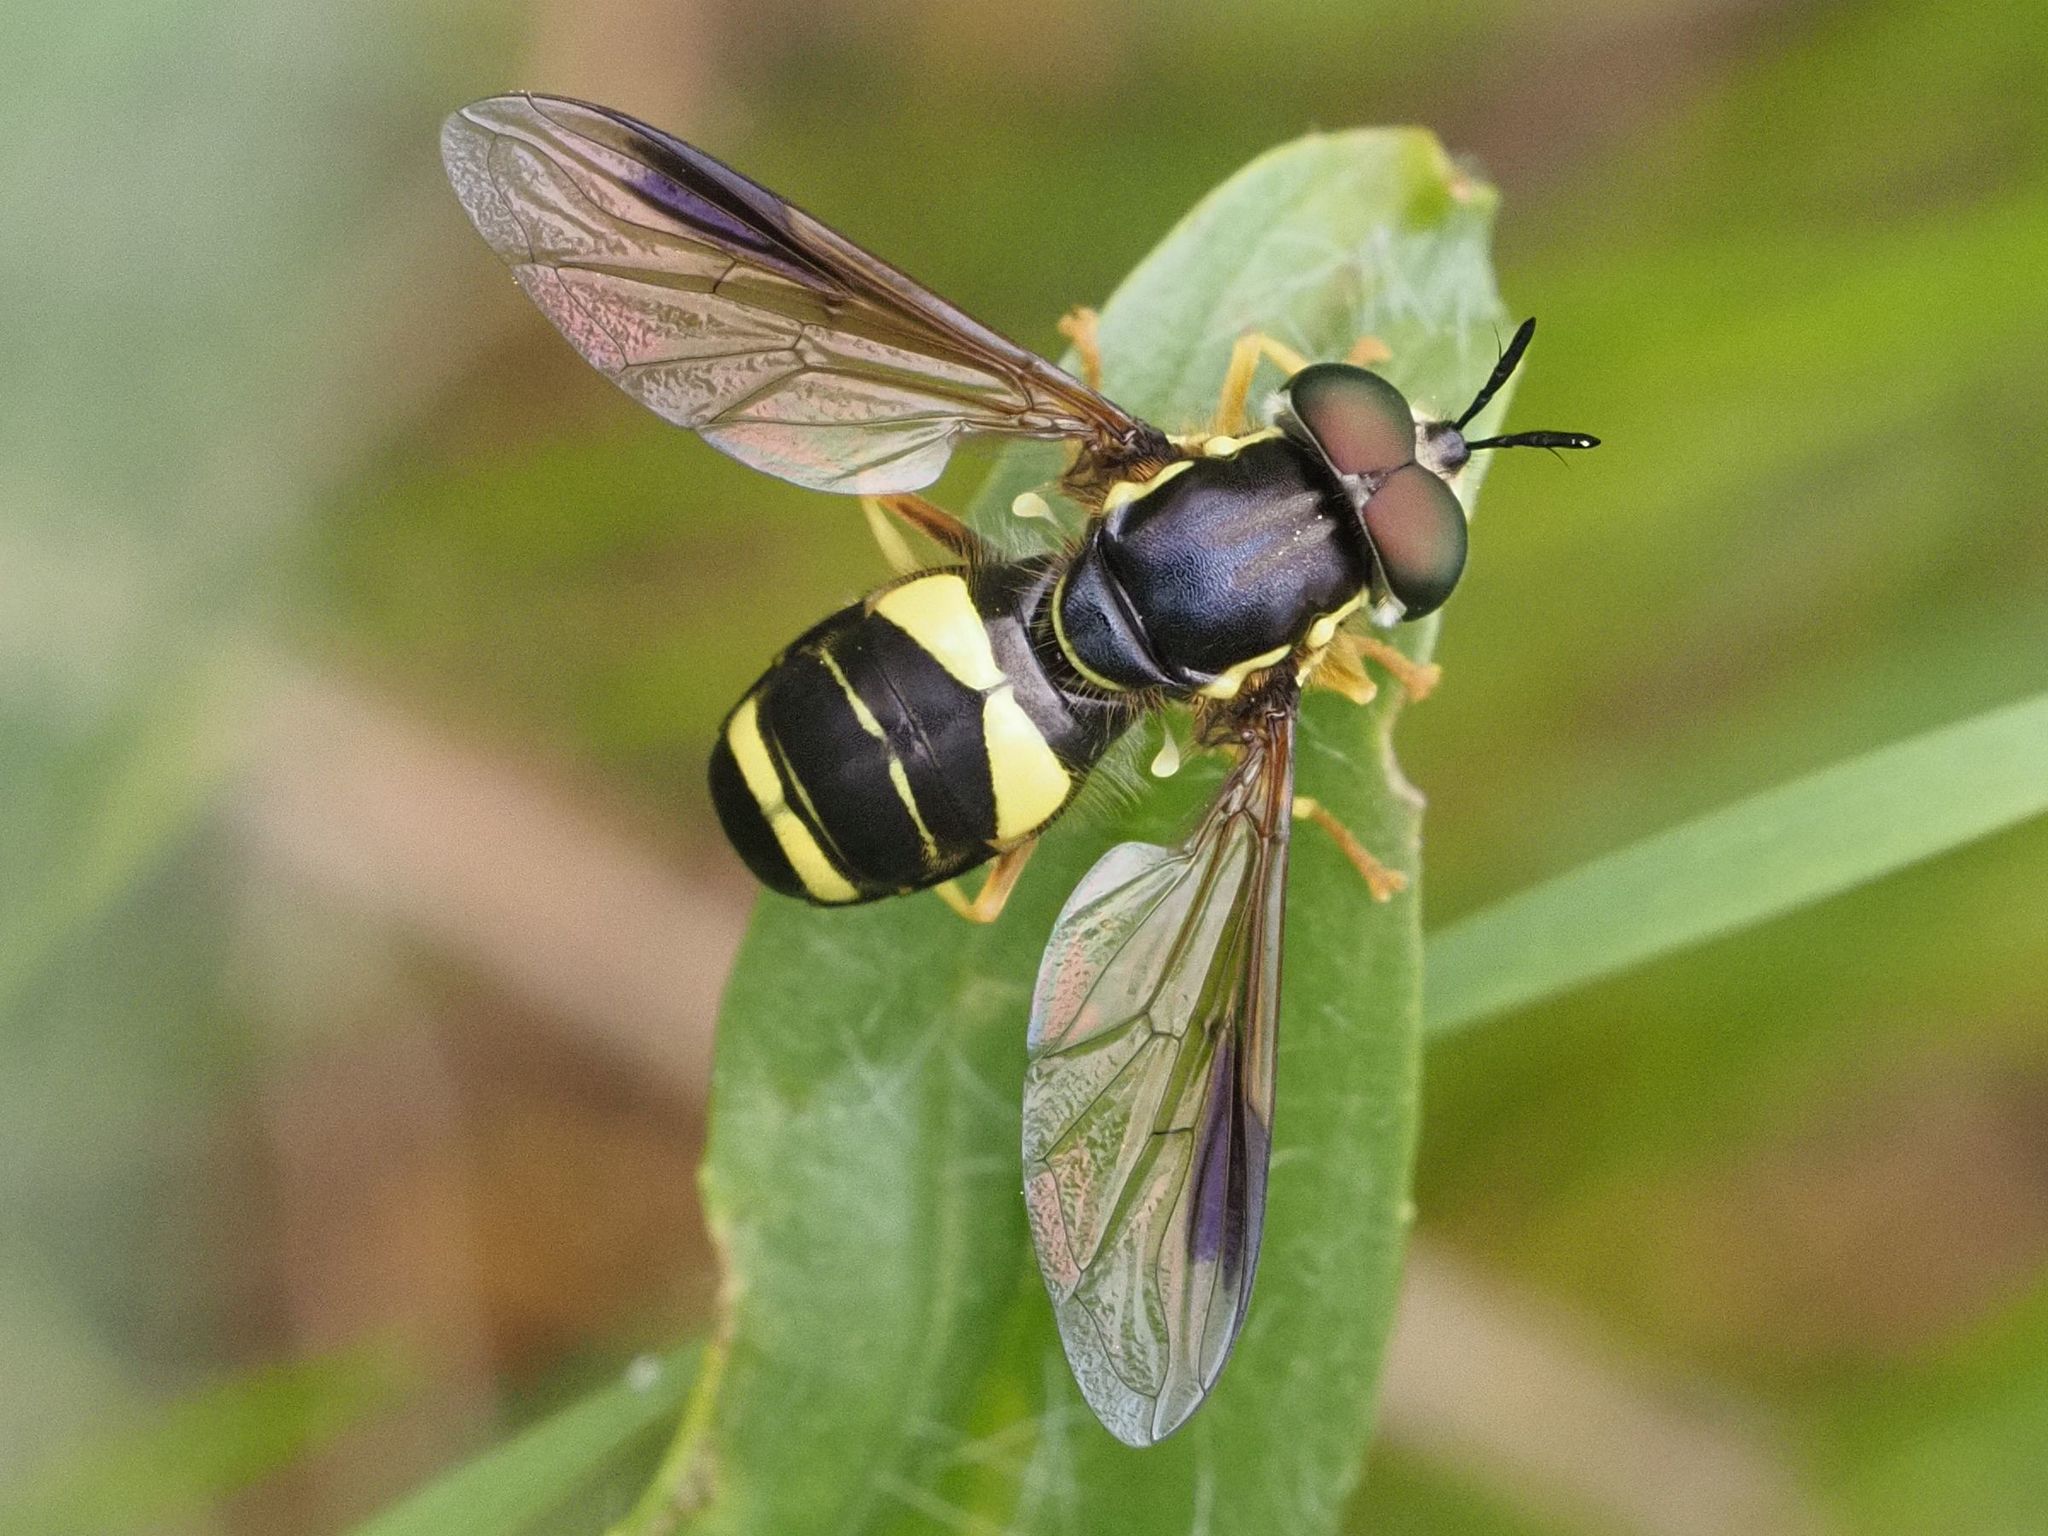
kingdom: Animalia
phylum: Arthropoda
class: Insecta
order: Diptera
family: Syrphidae
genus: Chrysotoxum
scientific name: Chrysotoxum bicincta
